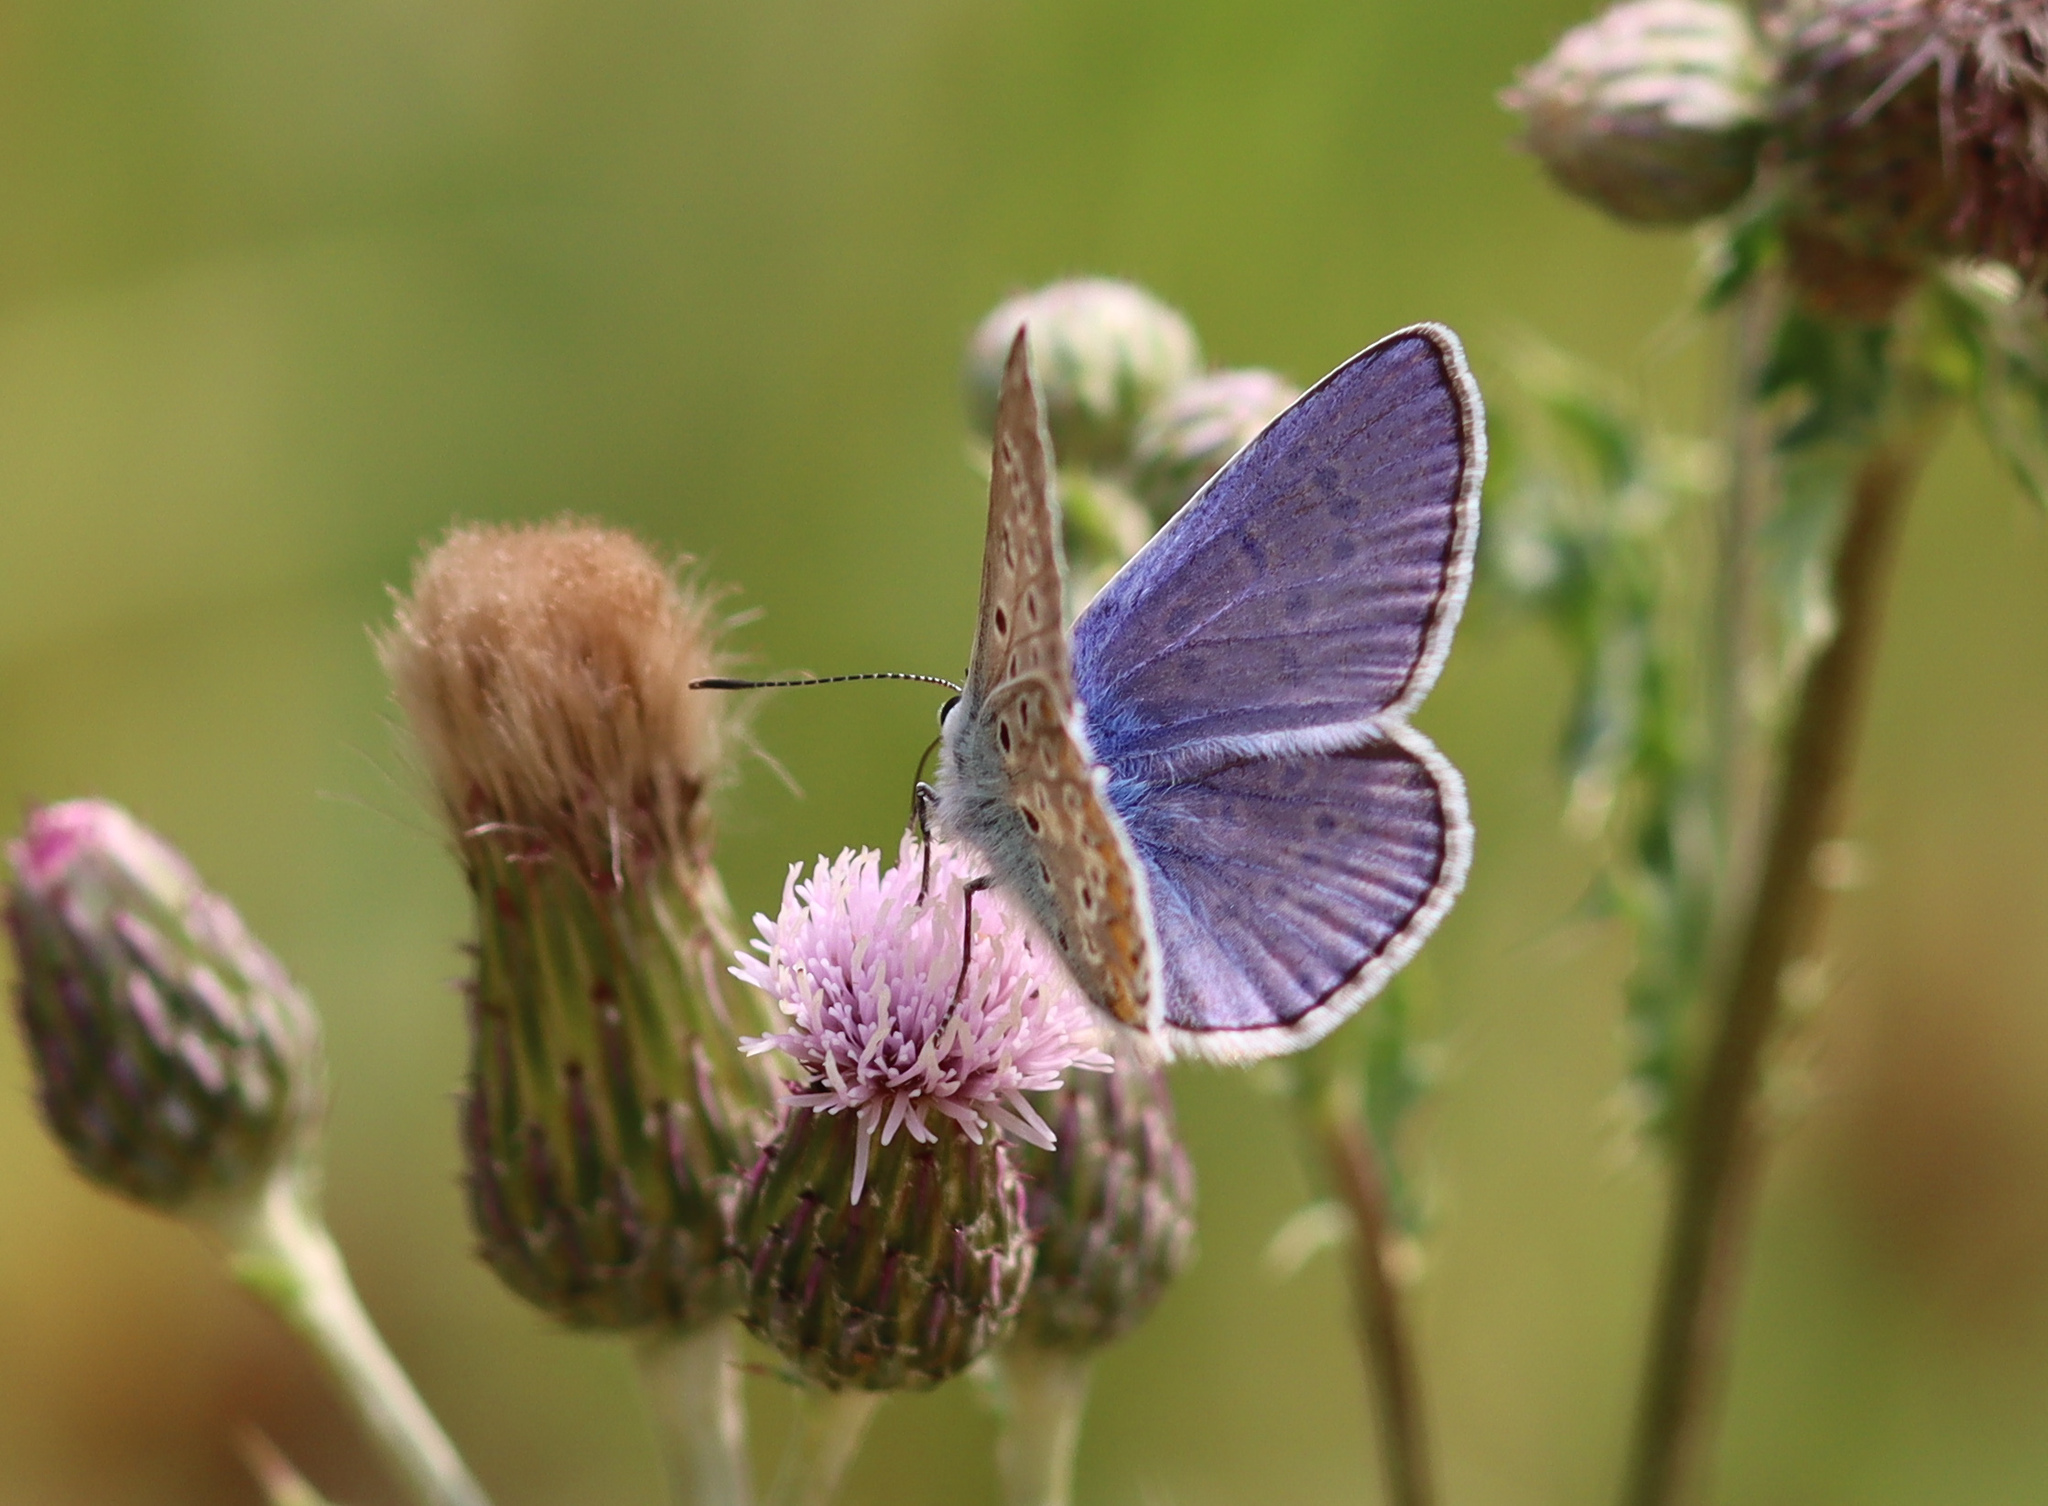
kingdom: Animalia
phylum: Arthropoda
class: Insecta
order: Lepidoptera
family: Lycaenidae
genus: Polyommatus
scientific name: Polyommatus icarus
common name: Common blue
